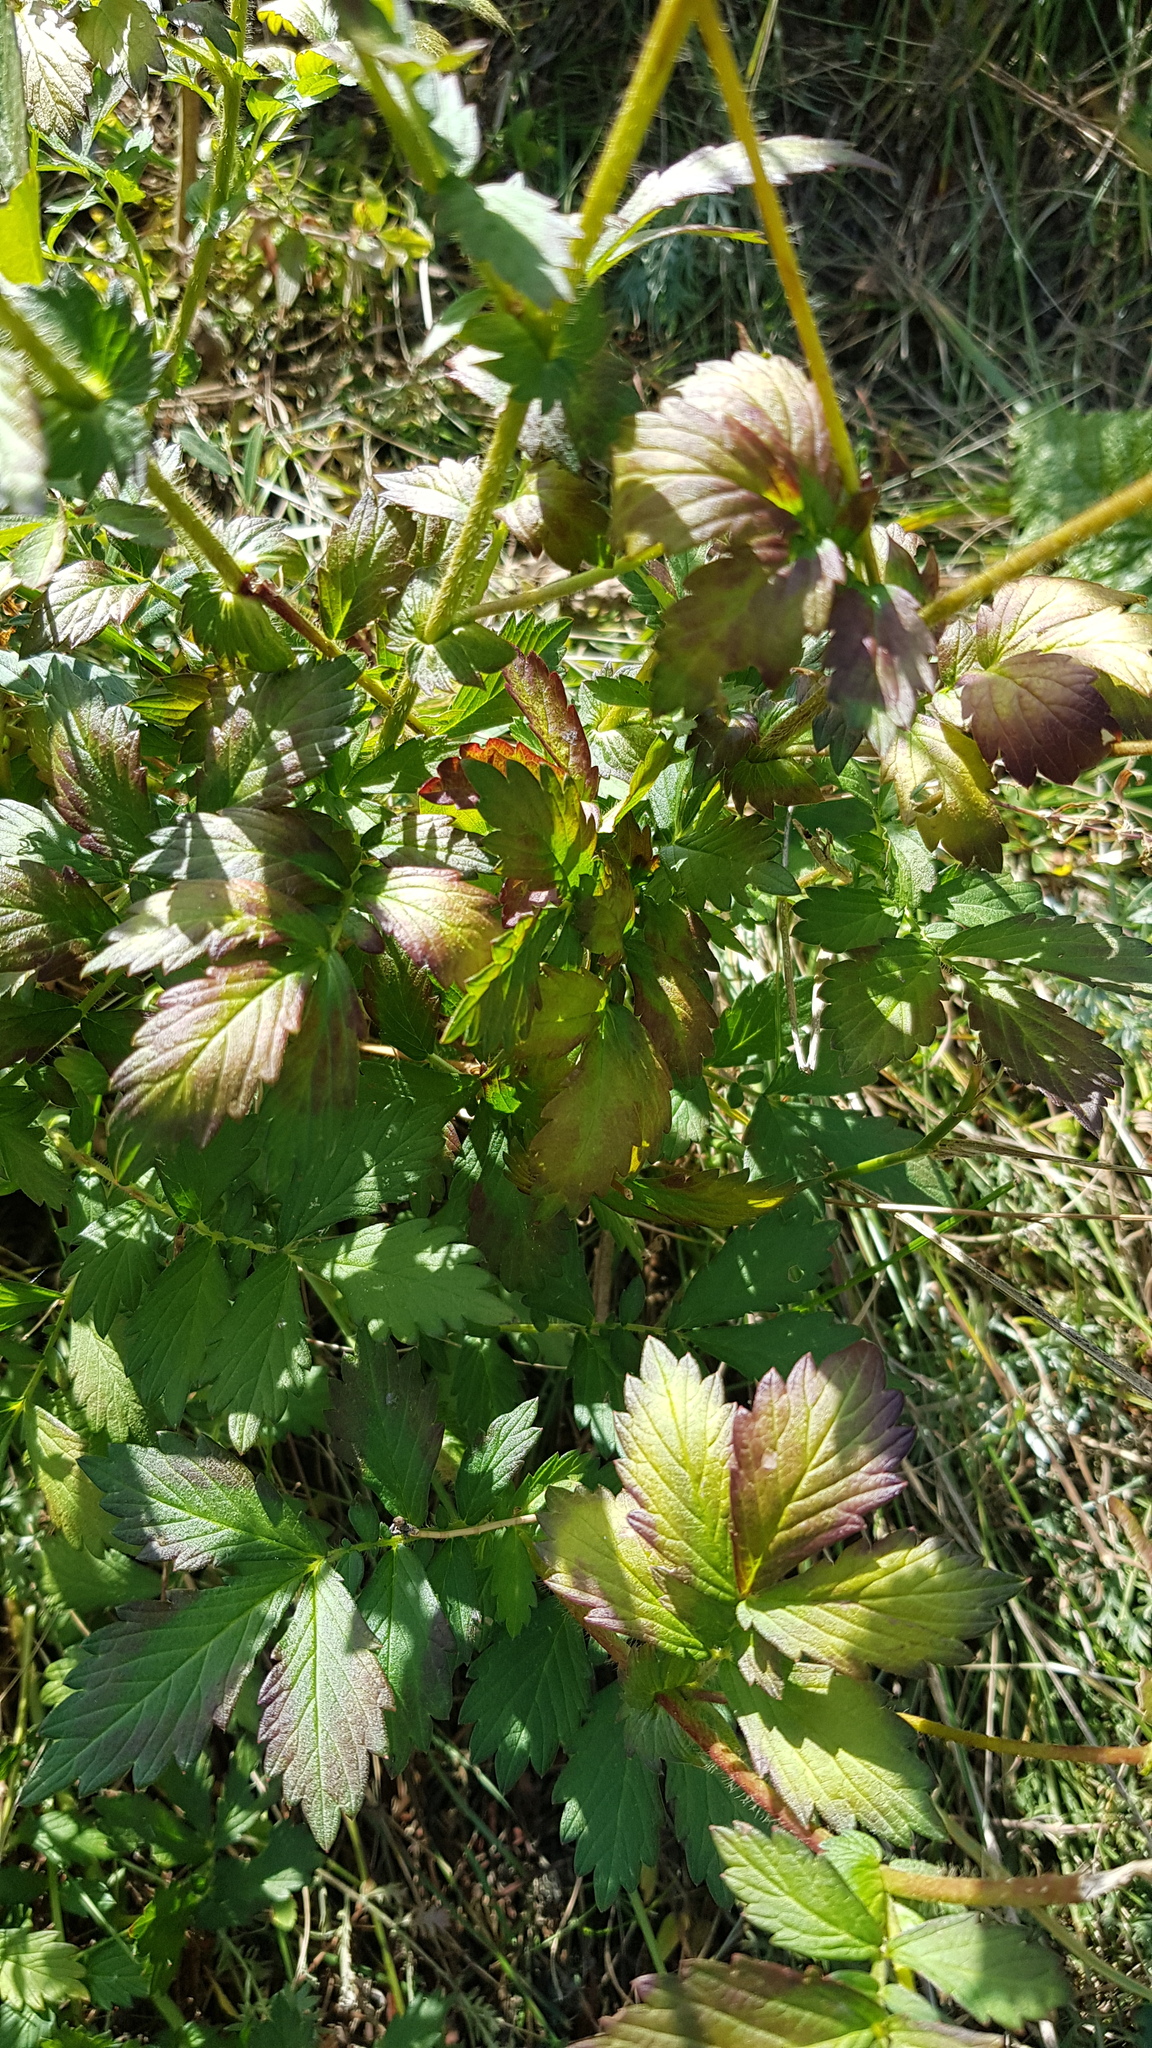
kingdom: Plantae
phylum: Tracheophyta
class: Magnoliopsida
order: Rosales
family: Rosaceae
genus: Agrimonia
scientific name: Agrimonia pilosa
